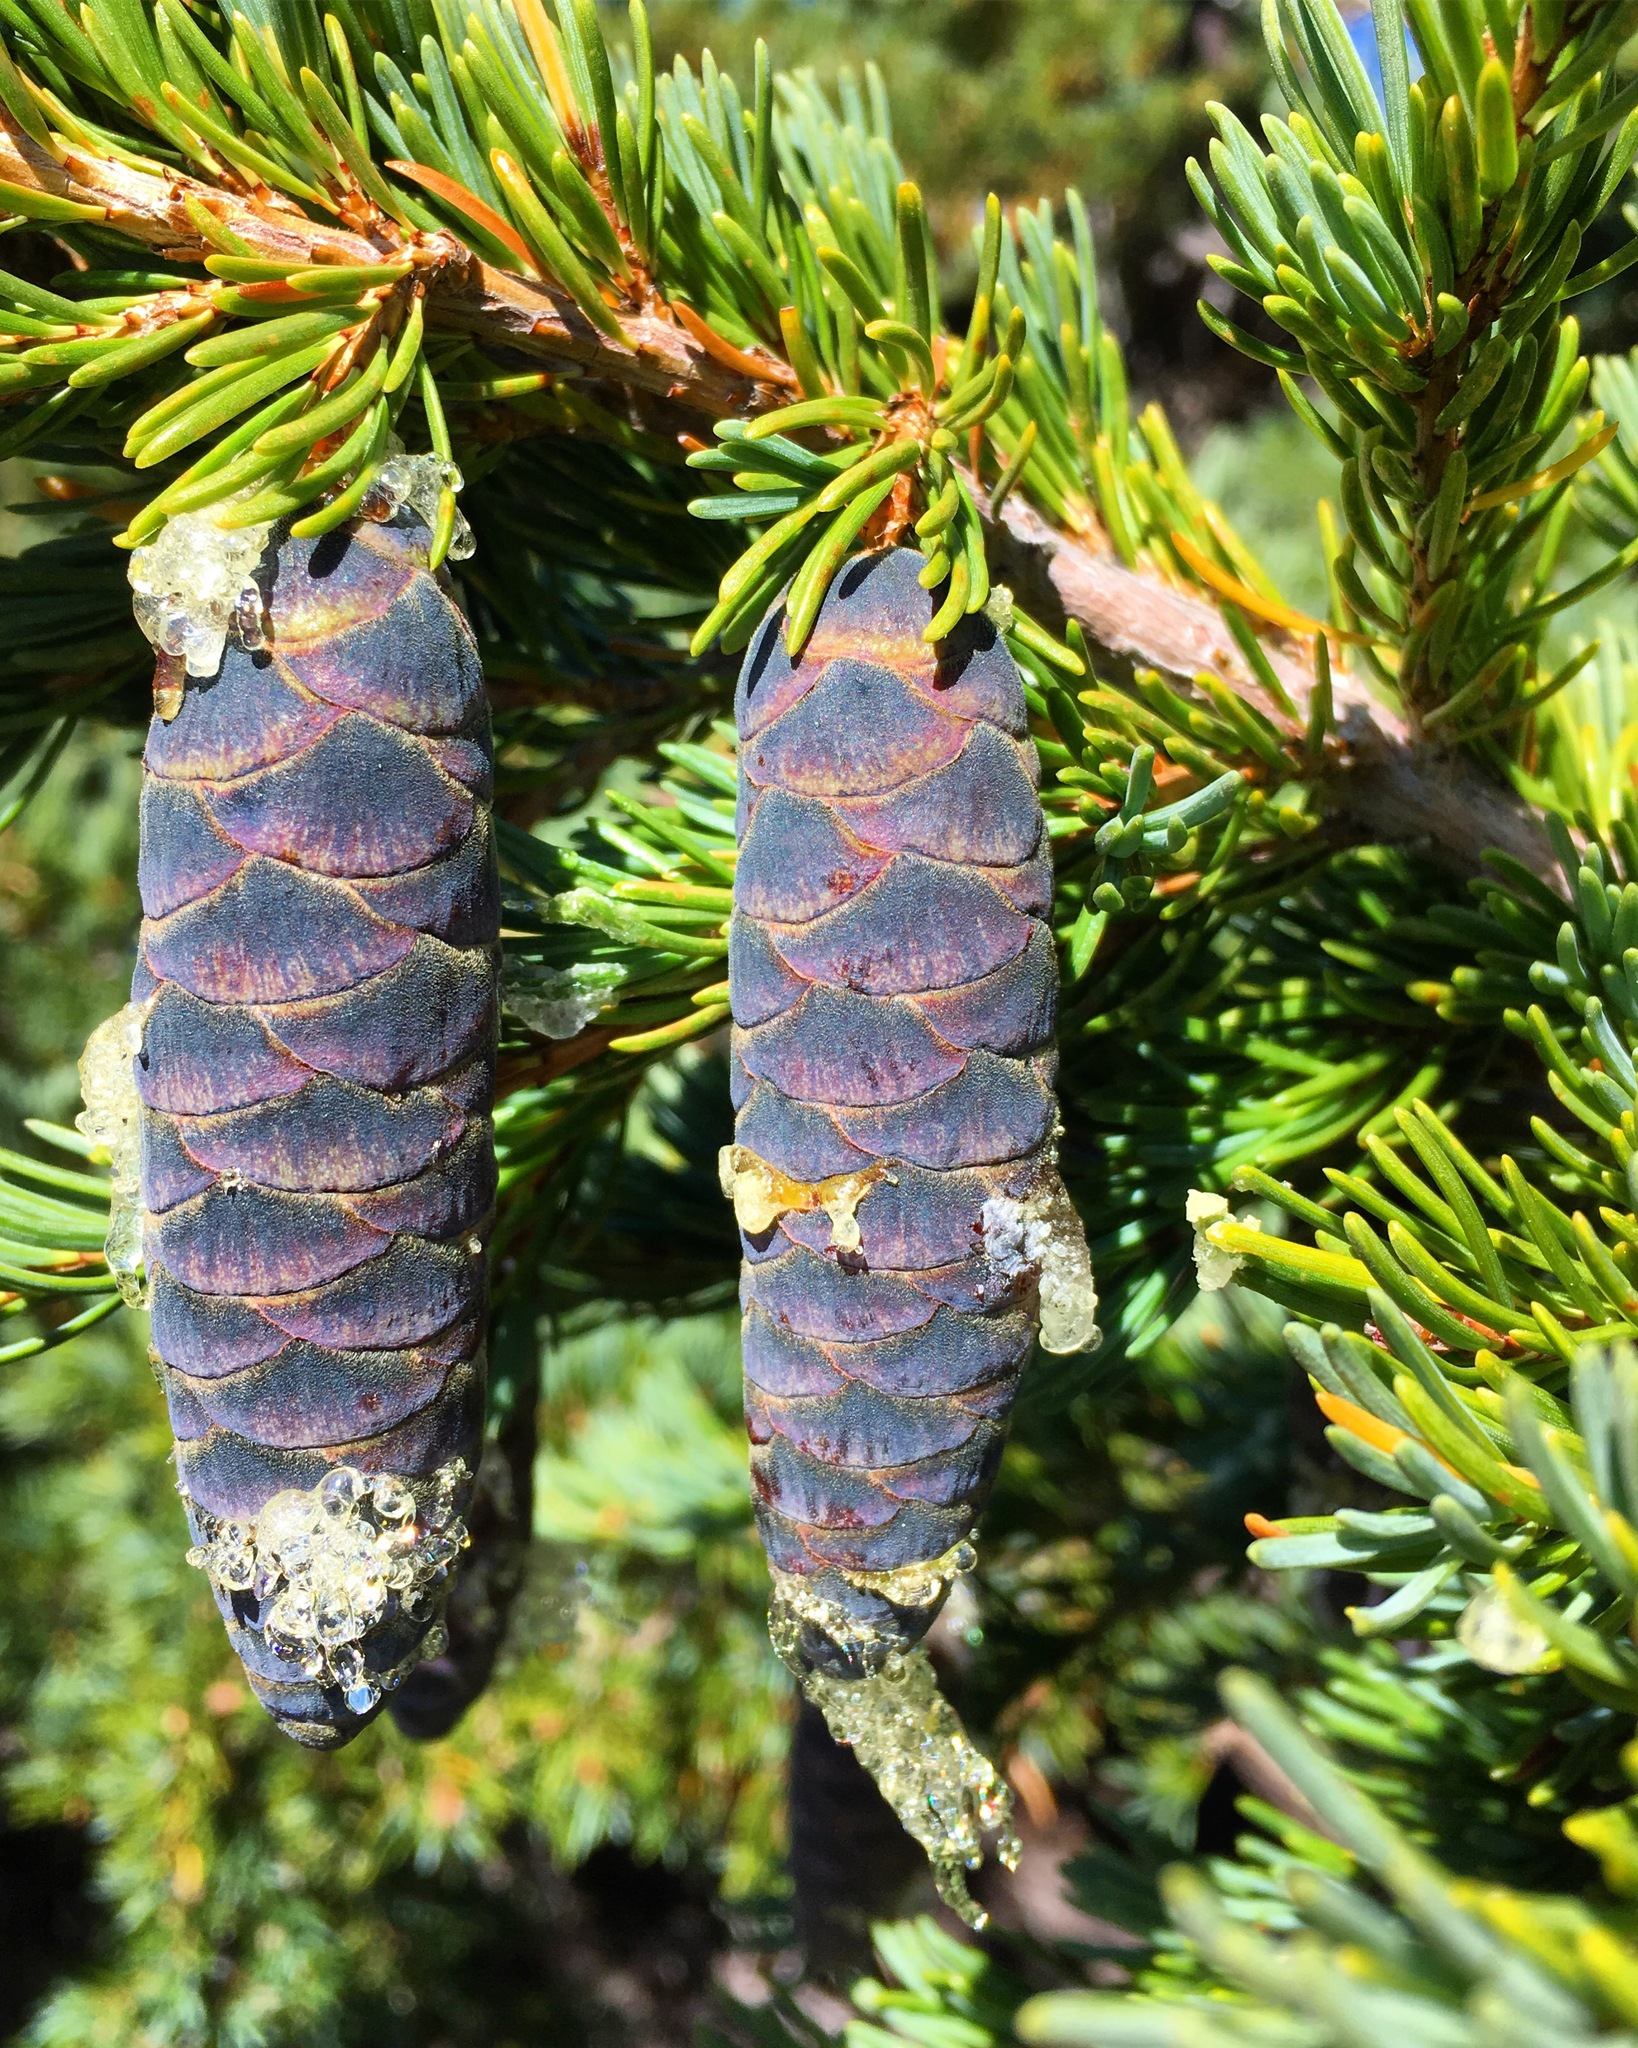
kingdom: Plantae
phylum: Tracheophyta
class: Pinopsida
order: Pinales
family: Pinaceae
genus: Tsuga
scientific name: Tsuga mertensiana
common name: Mountain hemlock
